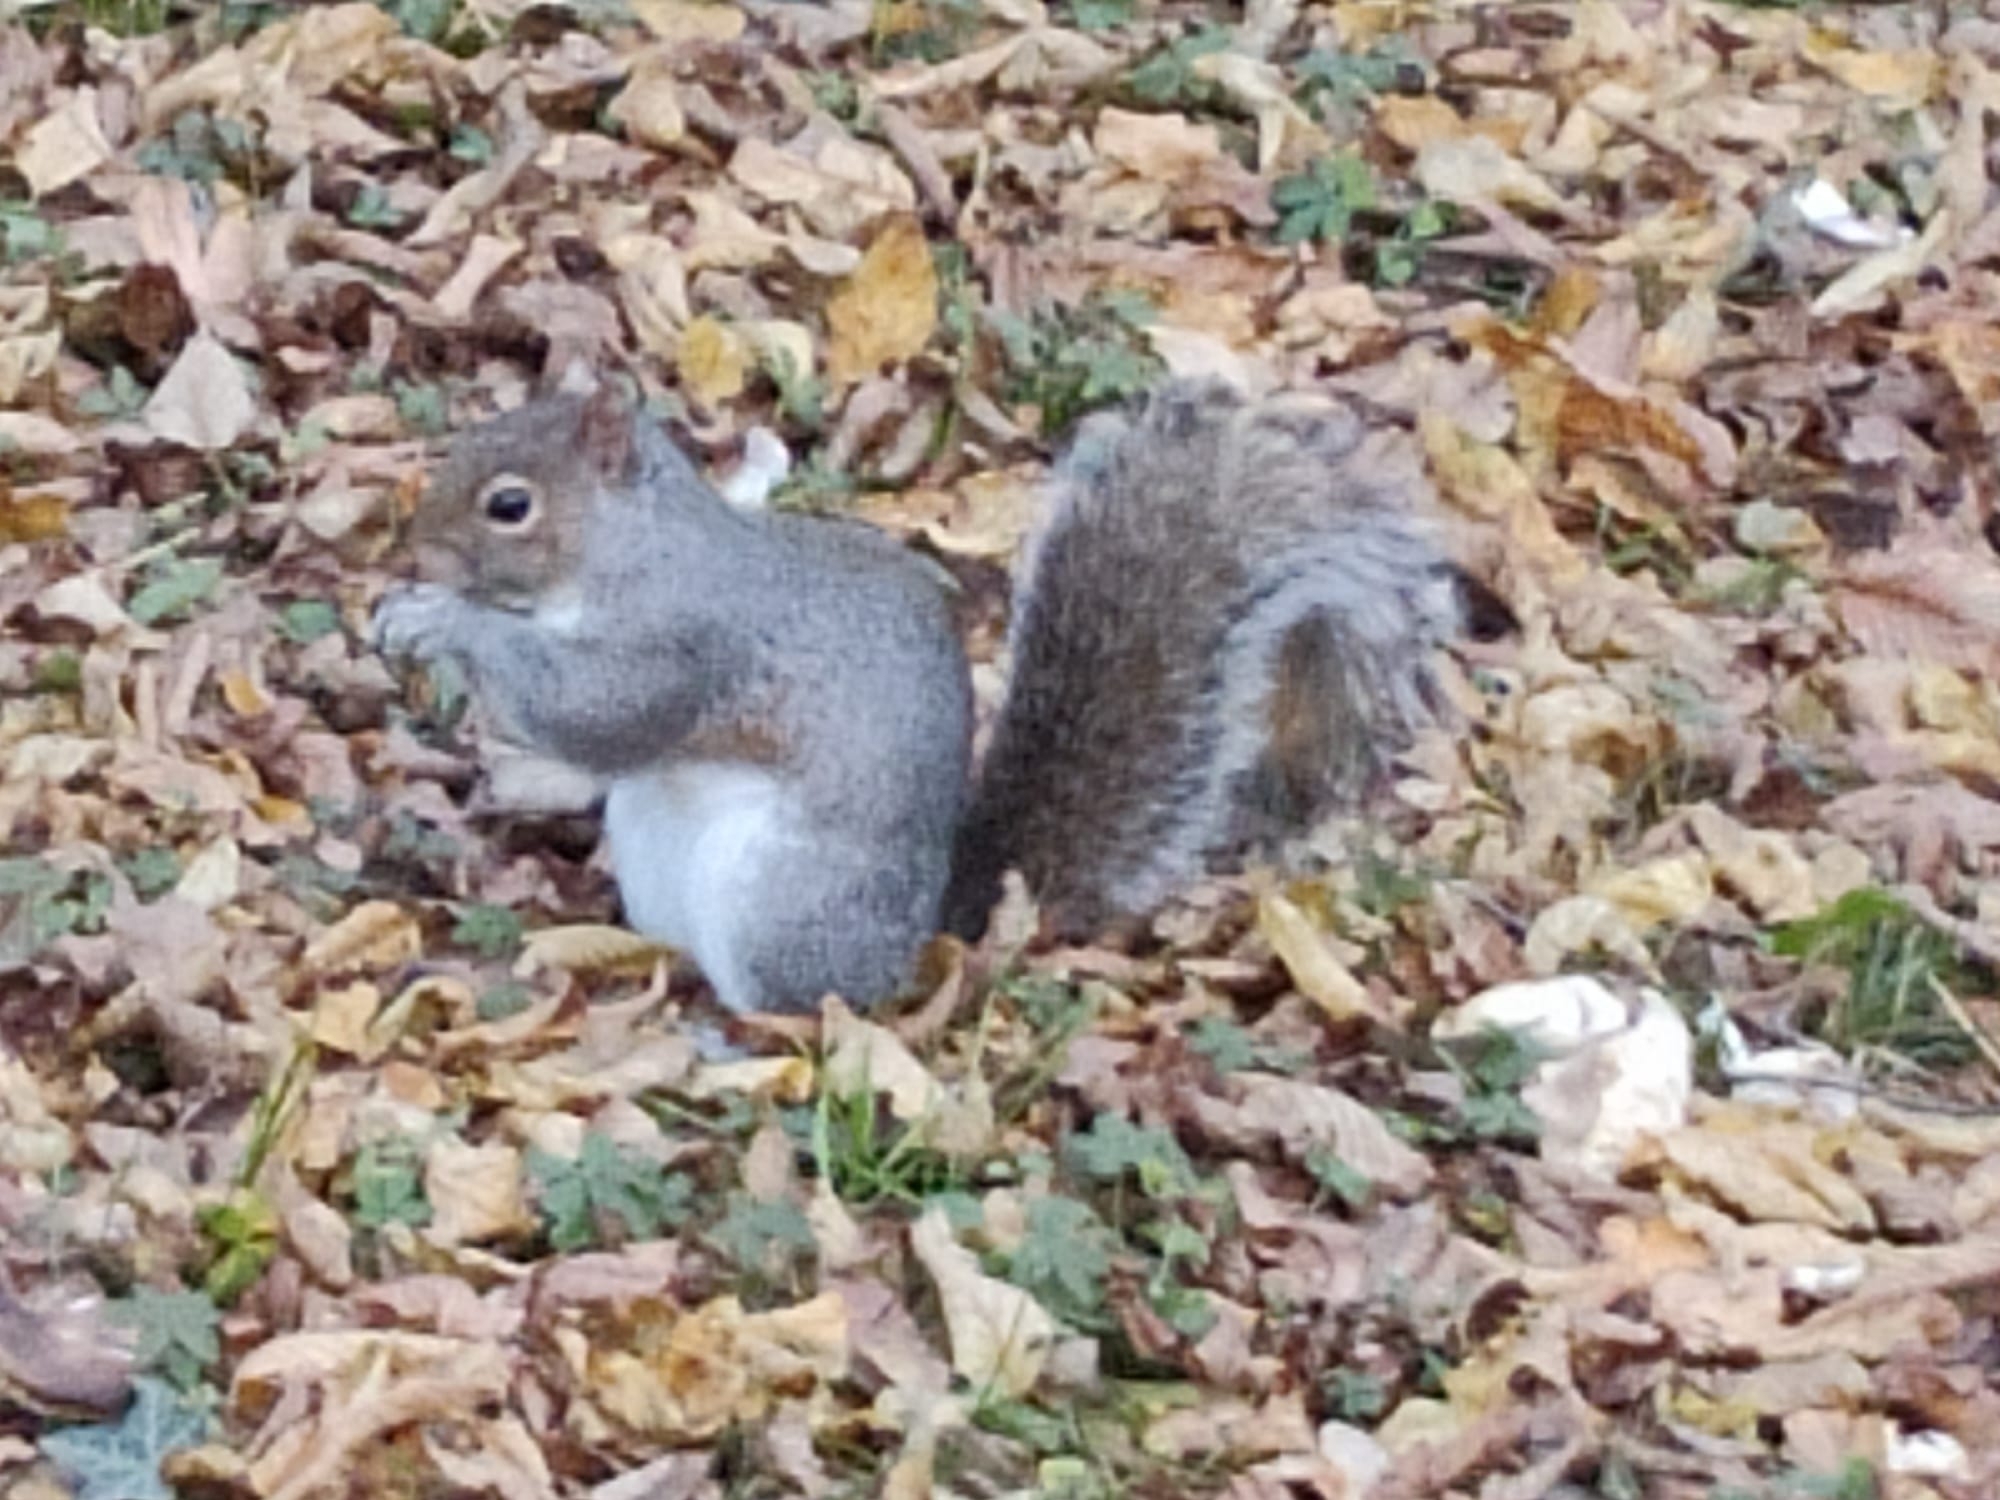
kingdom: Animalia
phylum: Chordata
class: Mammalia
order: Rodentia
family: Sciuridae
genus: Sciurus
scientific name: Sciurus carolinensis
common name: Eastern gray squirrel
